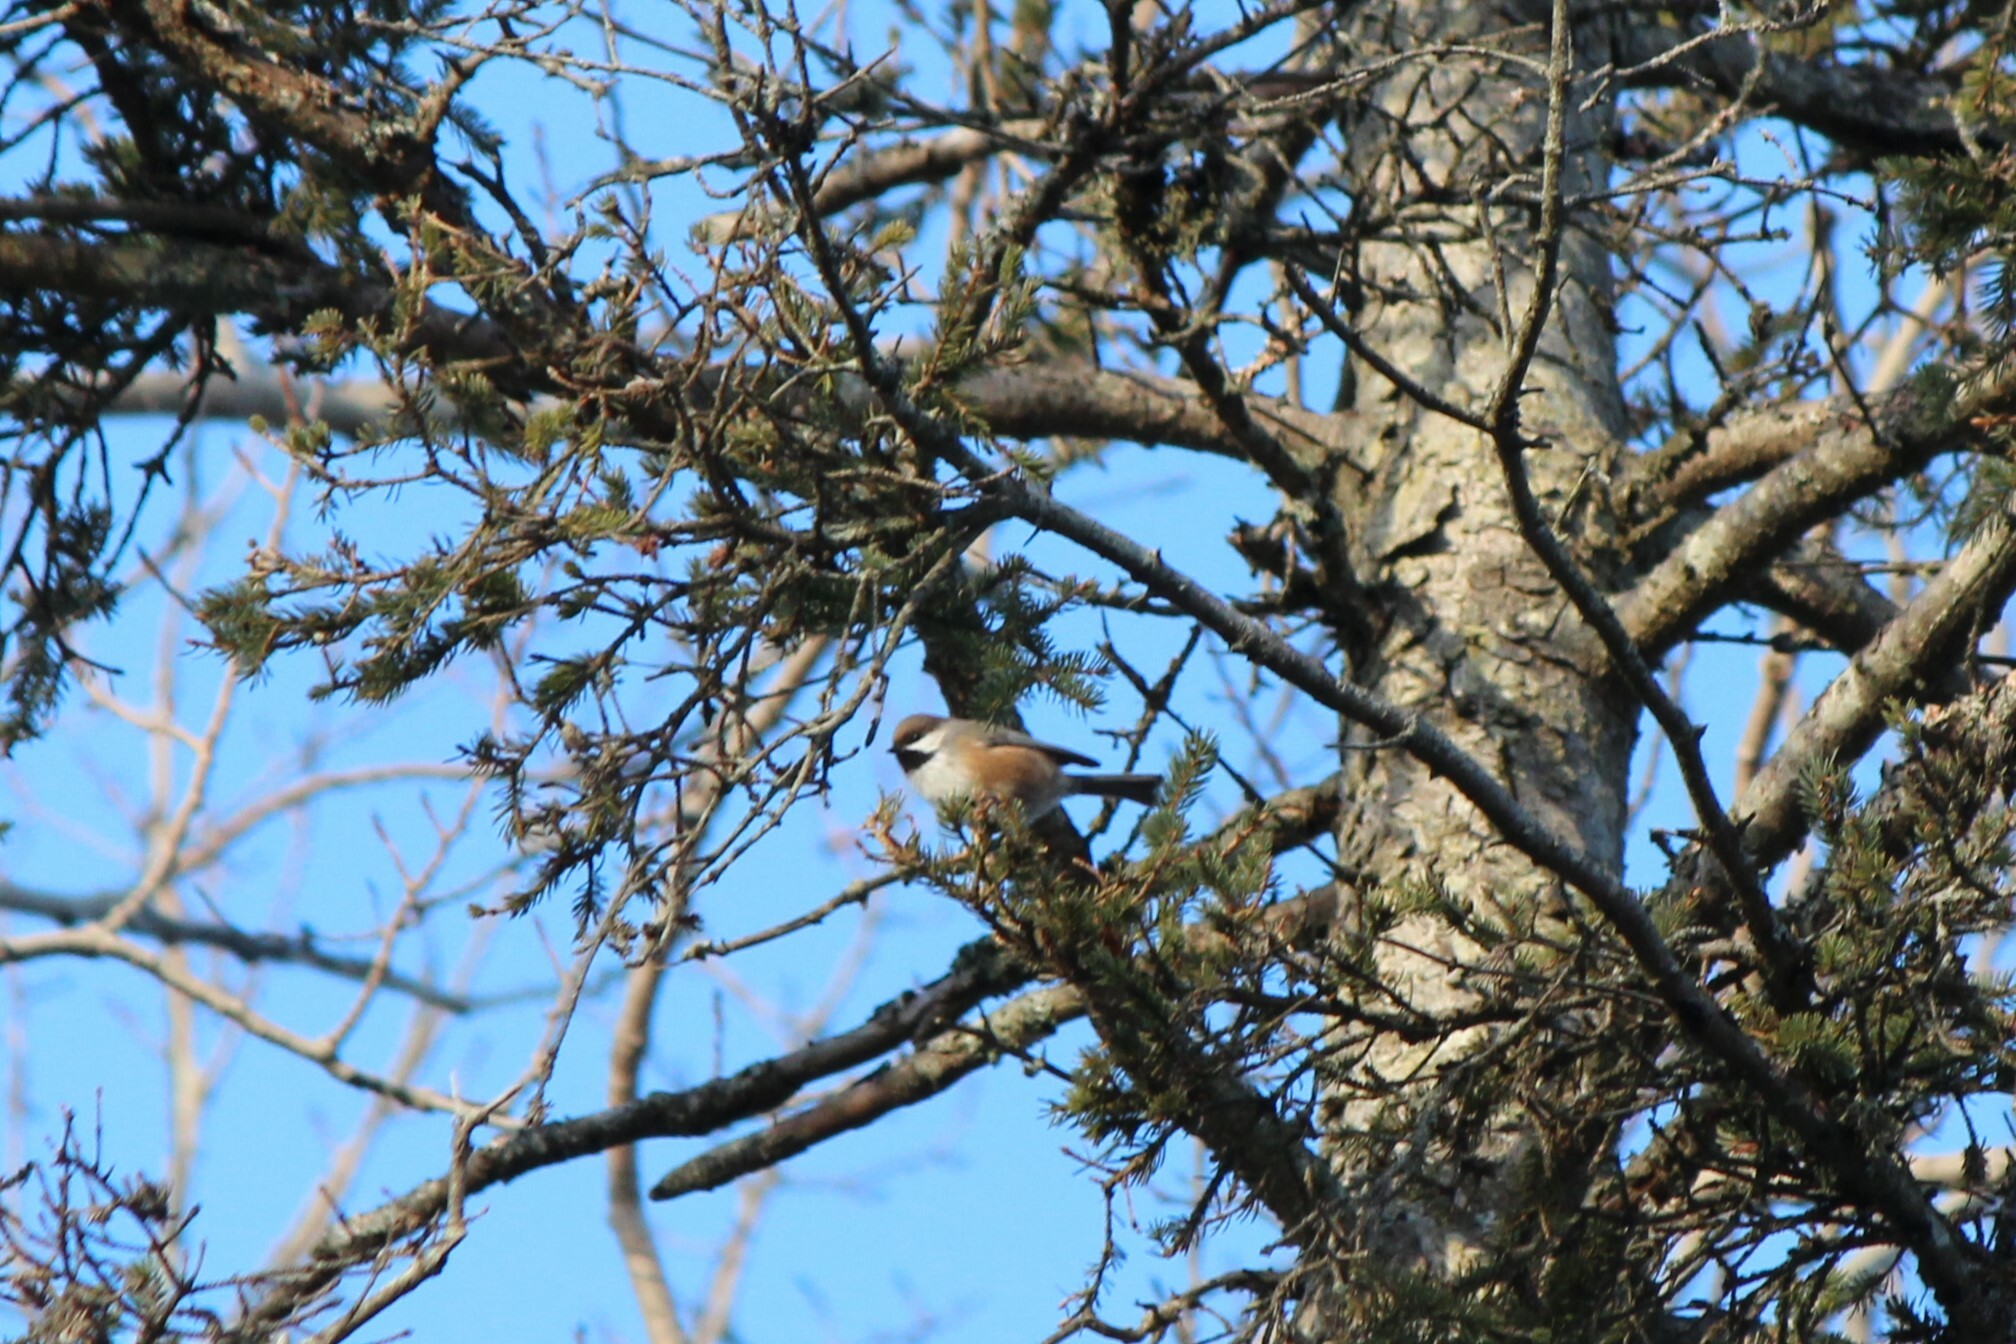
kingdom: Animalia
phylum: Chordata
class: Aves
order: Passeriformes
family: Paridae
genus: Poecile
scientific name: Poecile hudsonicus
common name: Boreal chickadee
